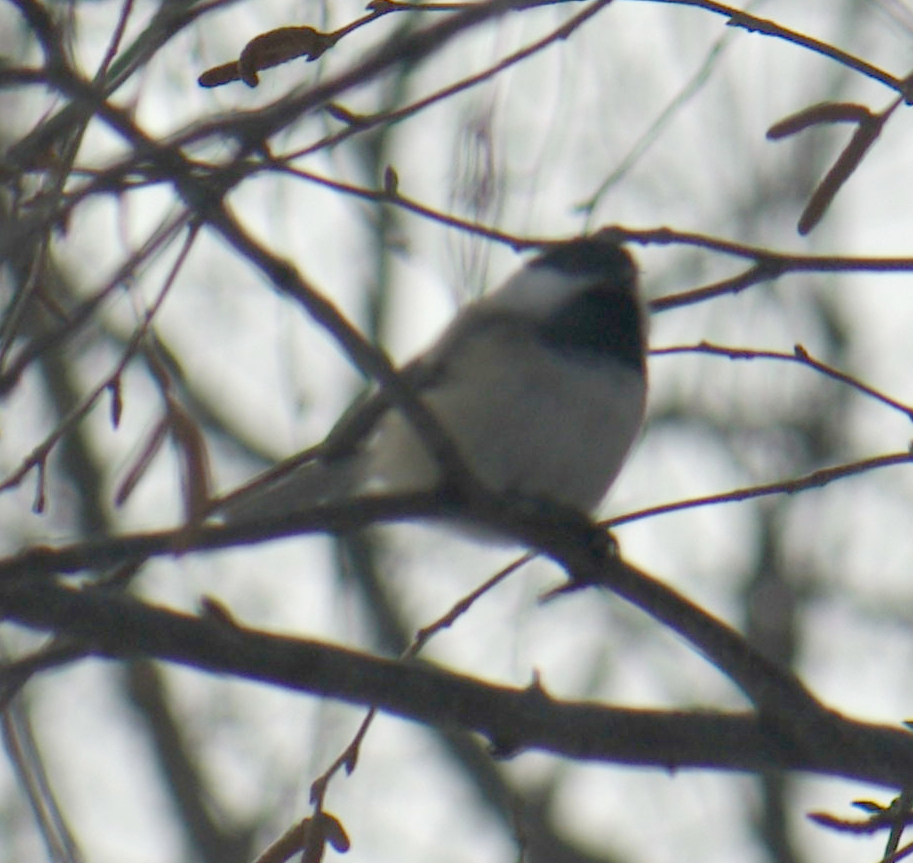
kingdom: Animalia
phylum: Chordata
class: Aves
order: Passeriformes
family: Paridae
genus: Poecile
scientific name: Poecile atricapillus
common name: Black-capped chickadee
